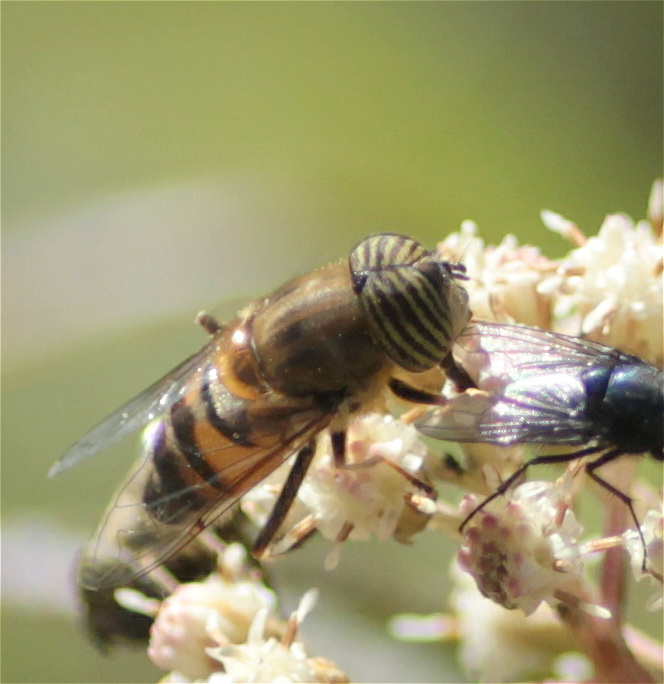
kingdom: Animalia
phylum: Arthropoda
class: Insecta
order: Diptera
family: Syrphidae
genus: Eristalinus
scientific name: Eristalinus taeniops
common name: Syrphid fly
